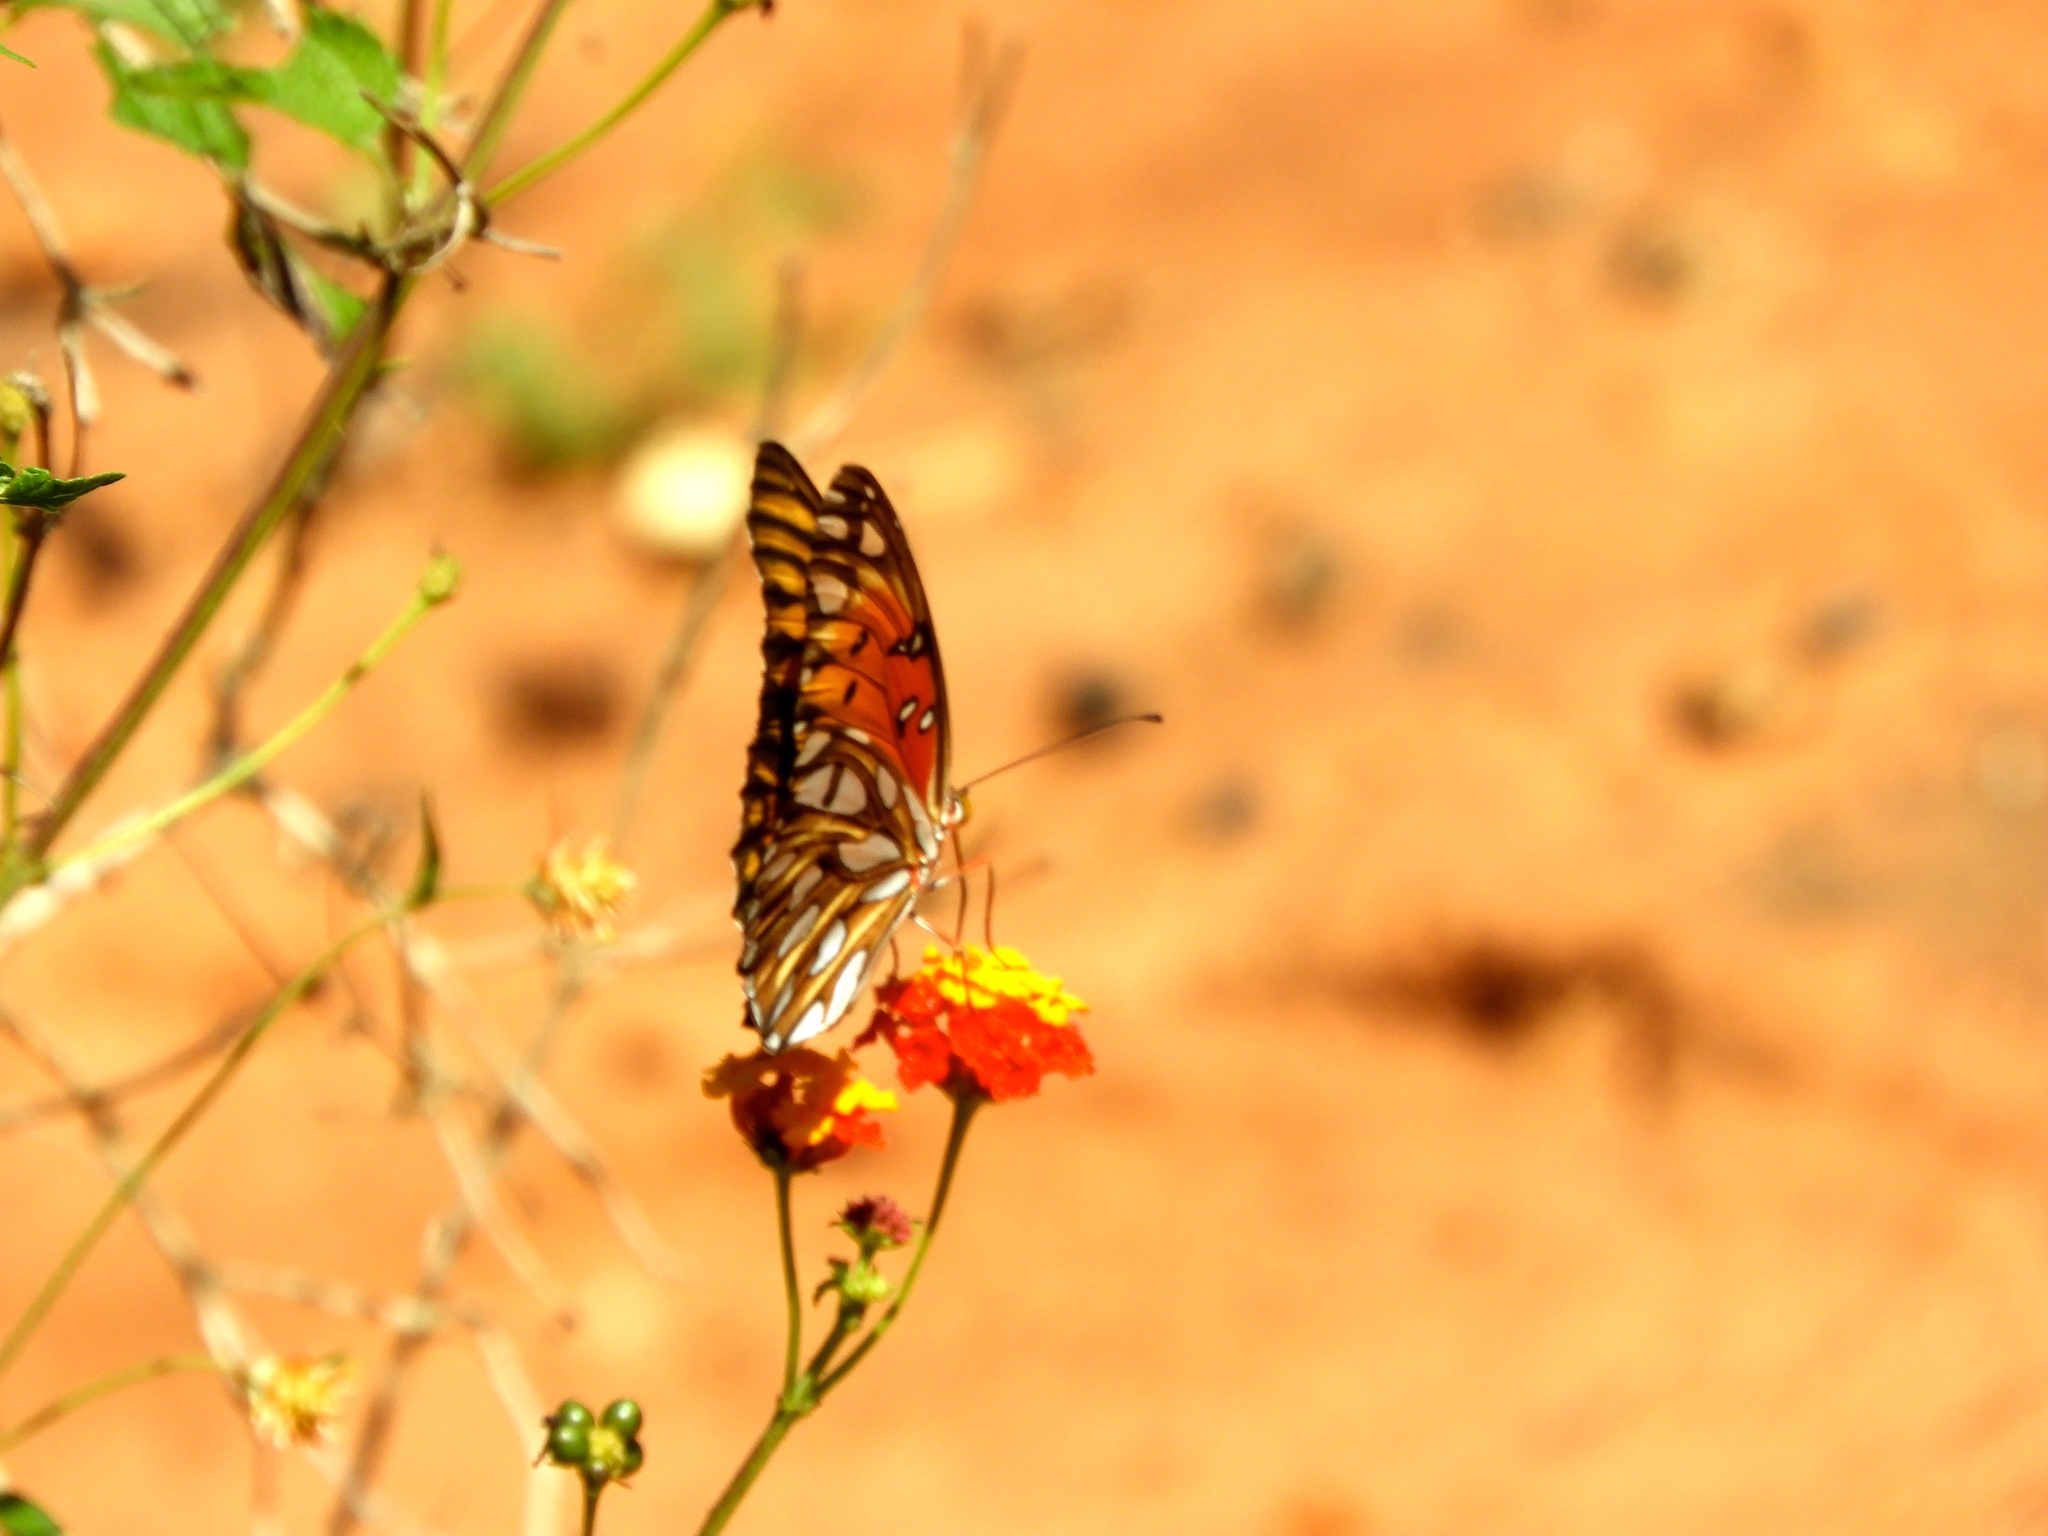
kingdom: Animalia
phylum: Arthropoda
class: Insecta
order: Lepidoptera
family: Nymphalidae
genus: Dione
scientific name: Dione vanillae
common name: Gulf fritillary
